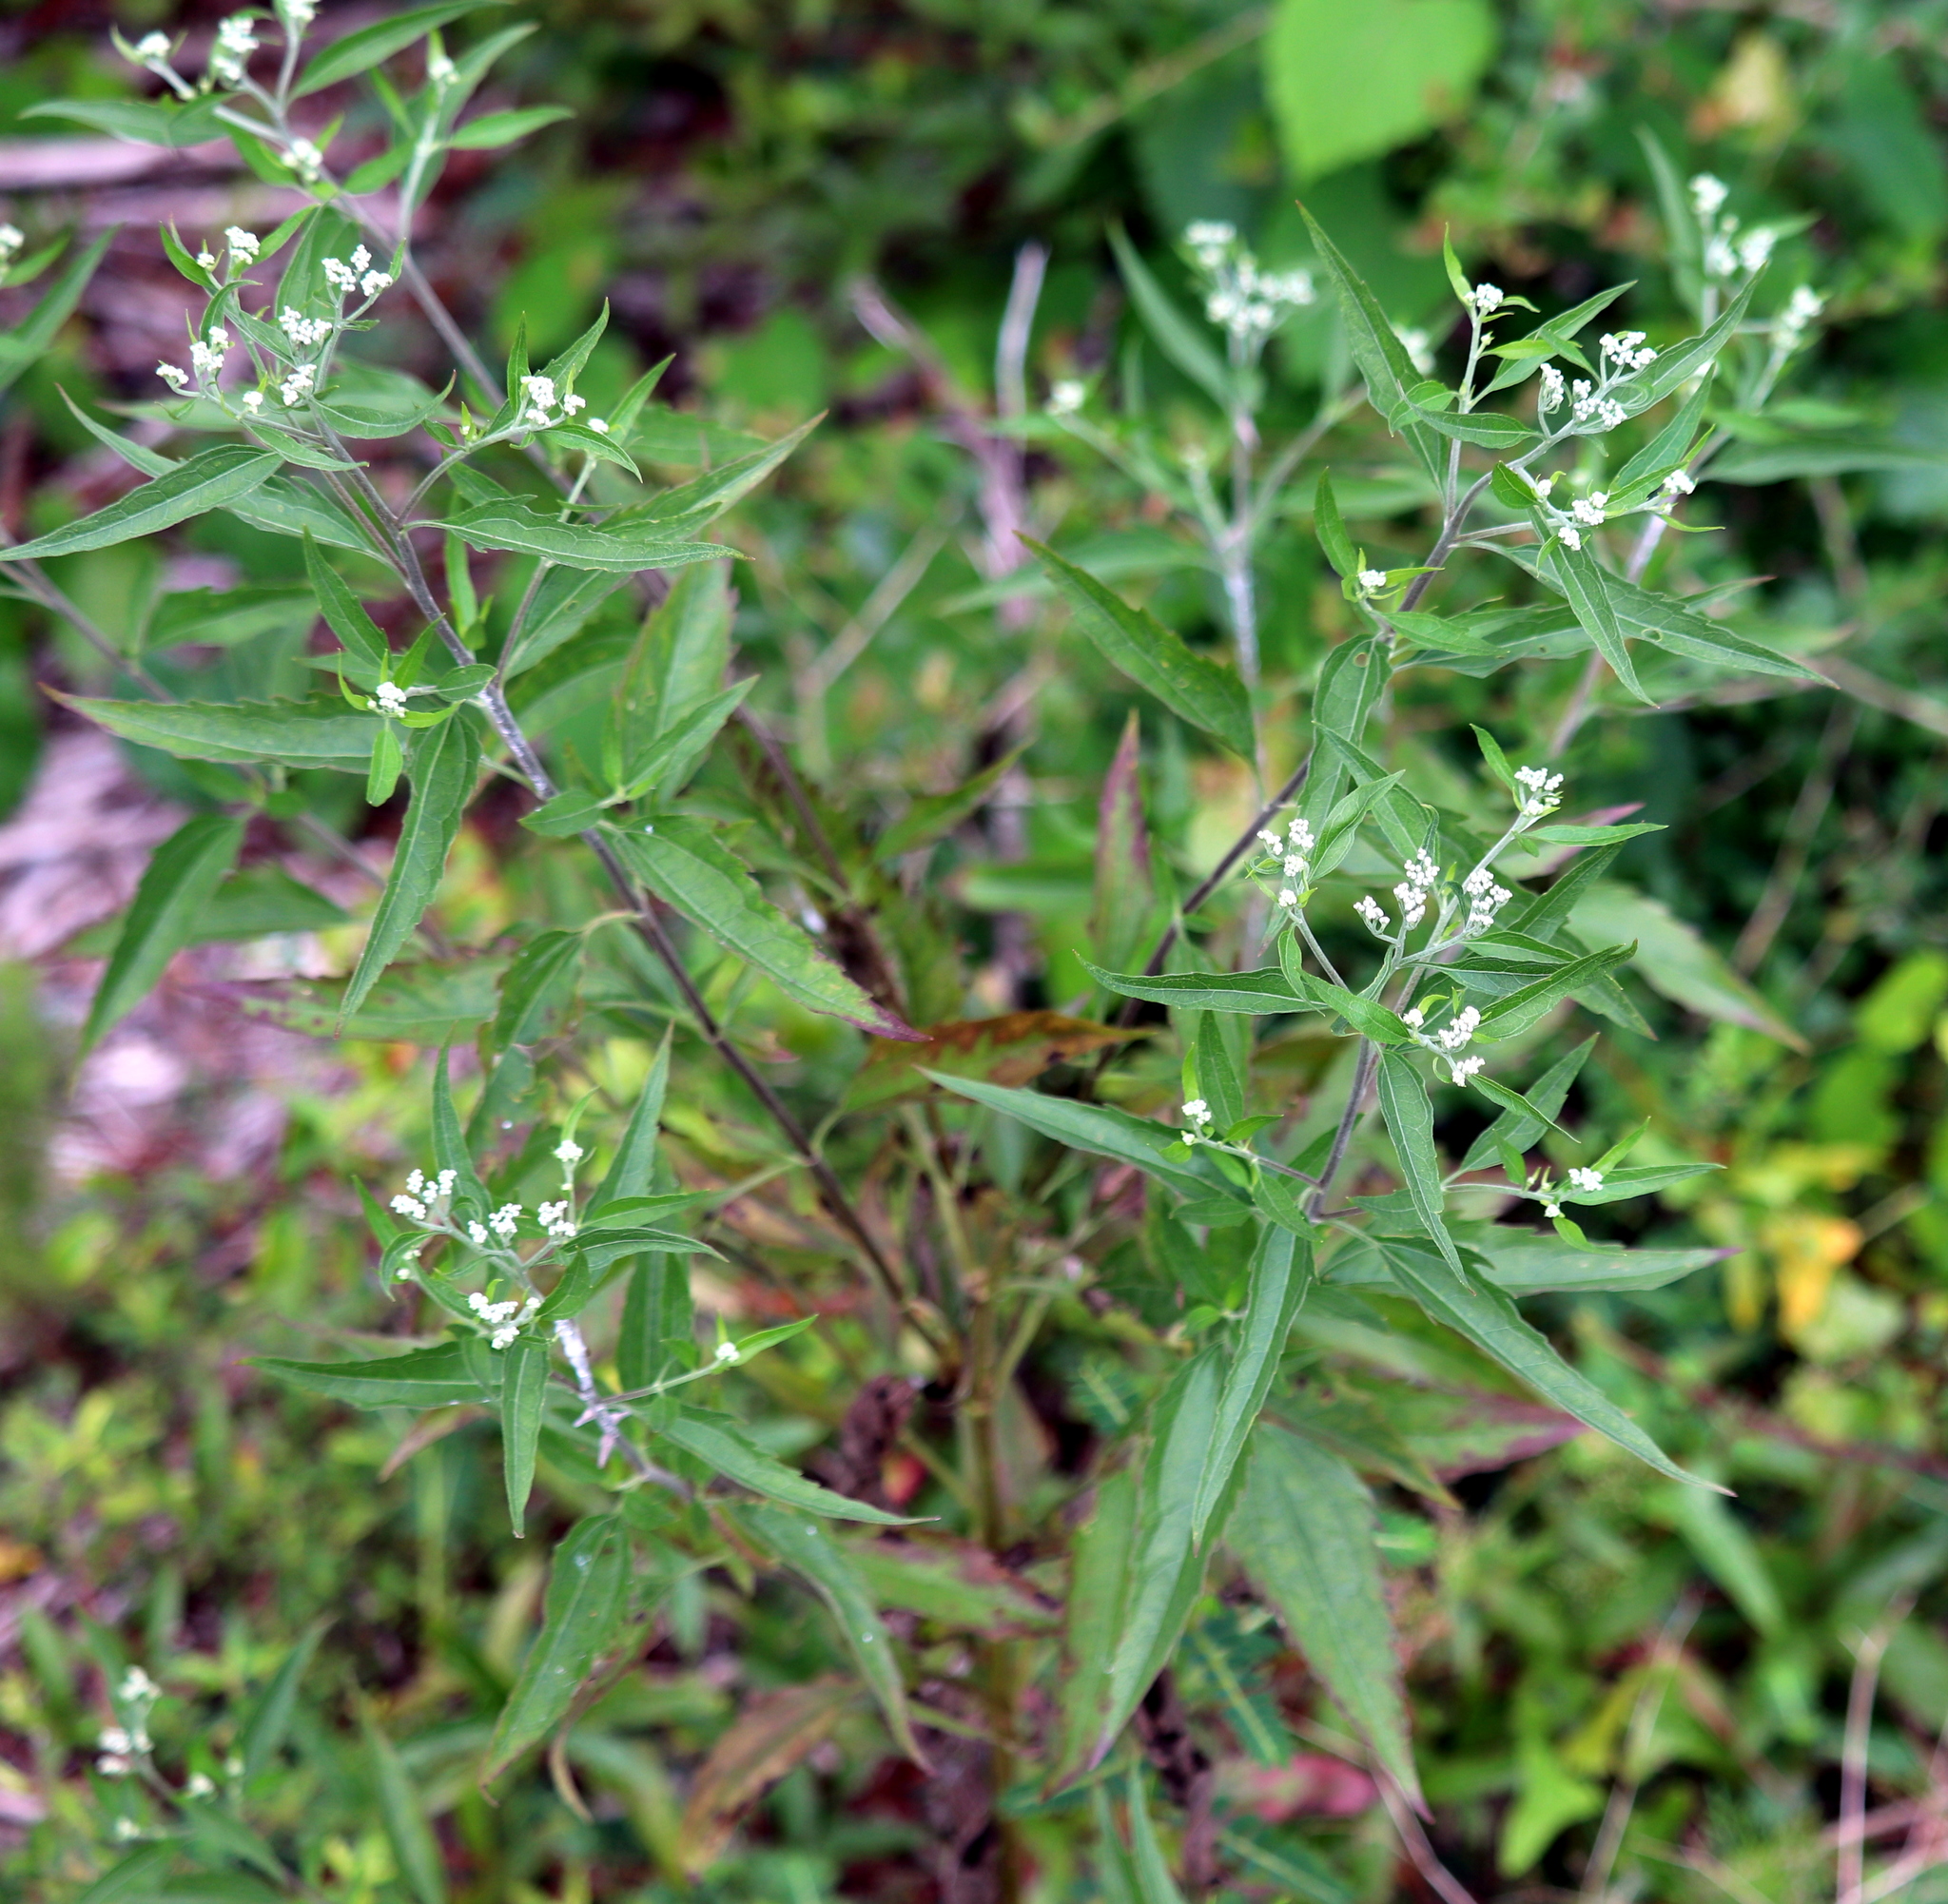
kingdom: Plantae
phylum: Tracheophyta
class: Magnoliopsida
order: Asterales
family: Asteraceae
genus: Eupatorium
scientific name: Eupatorium serotinum
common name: Late boneset
